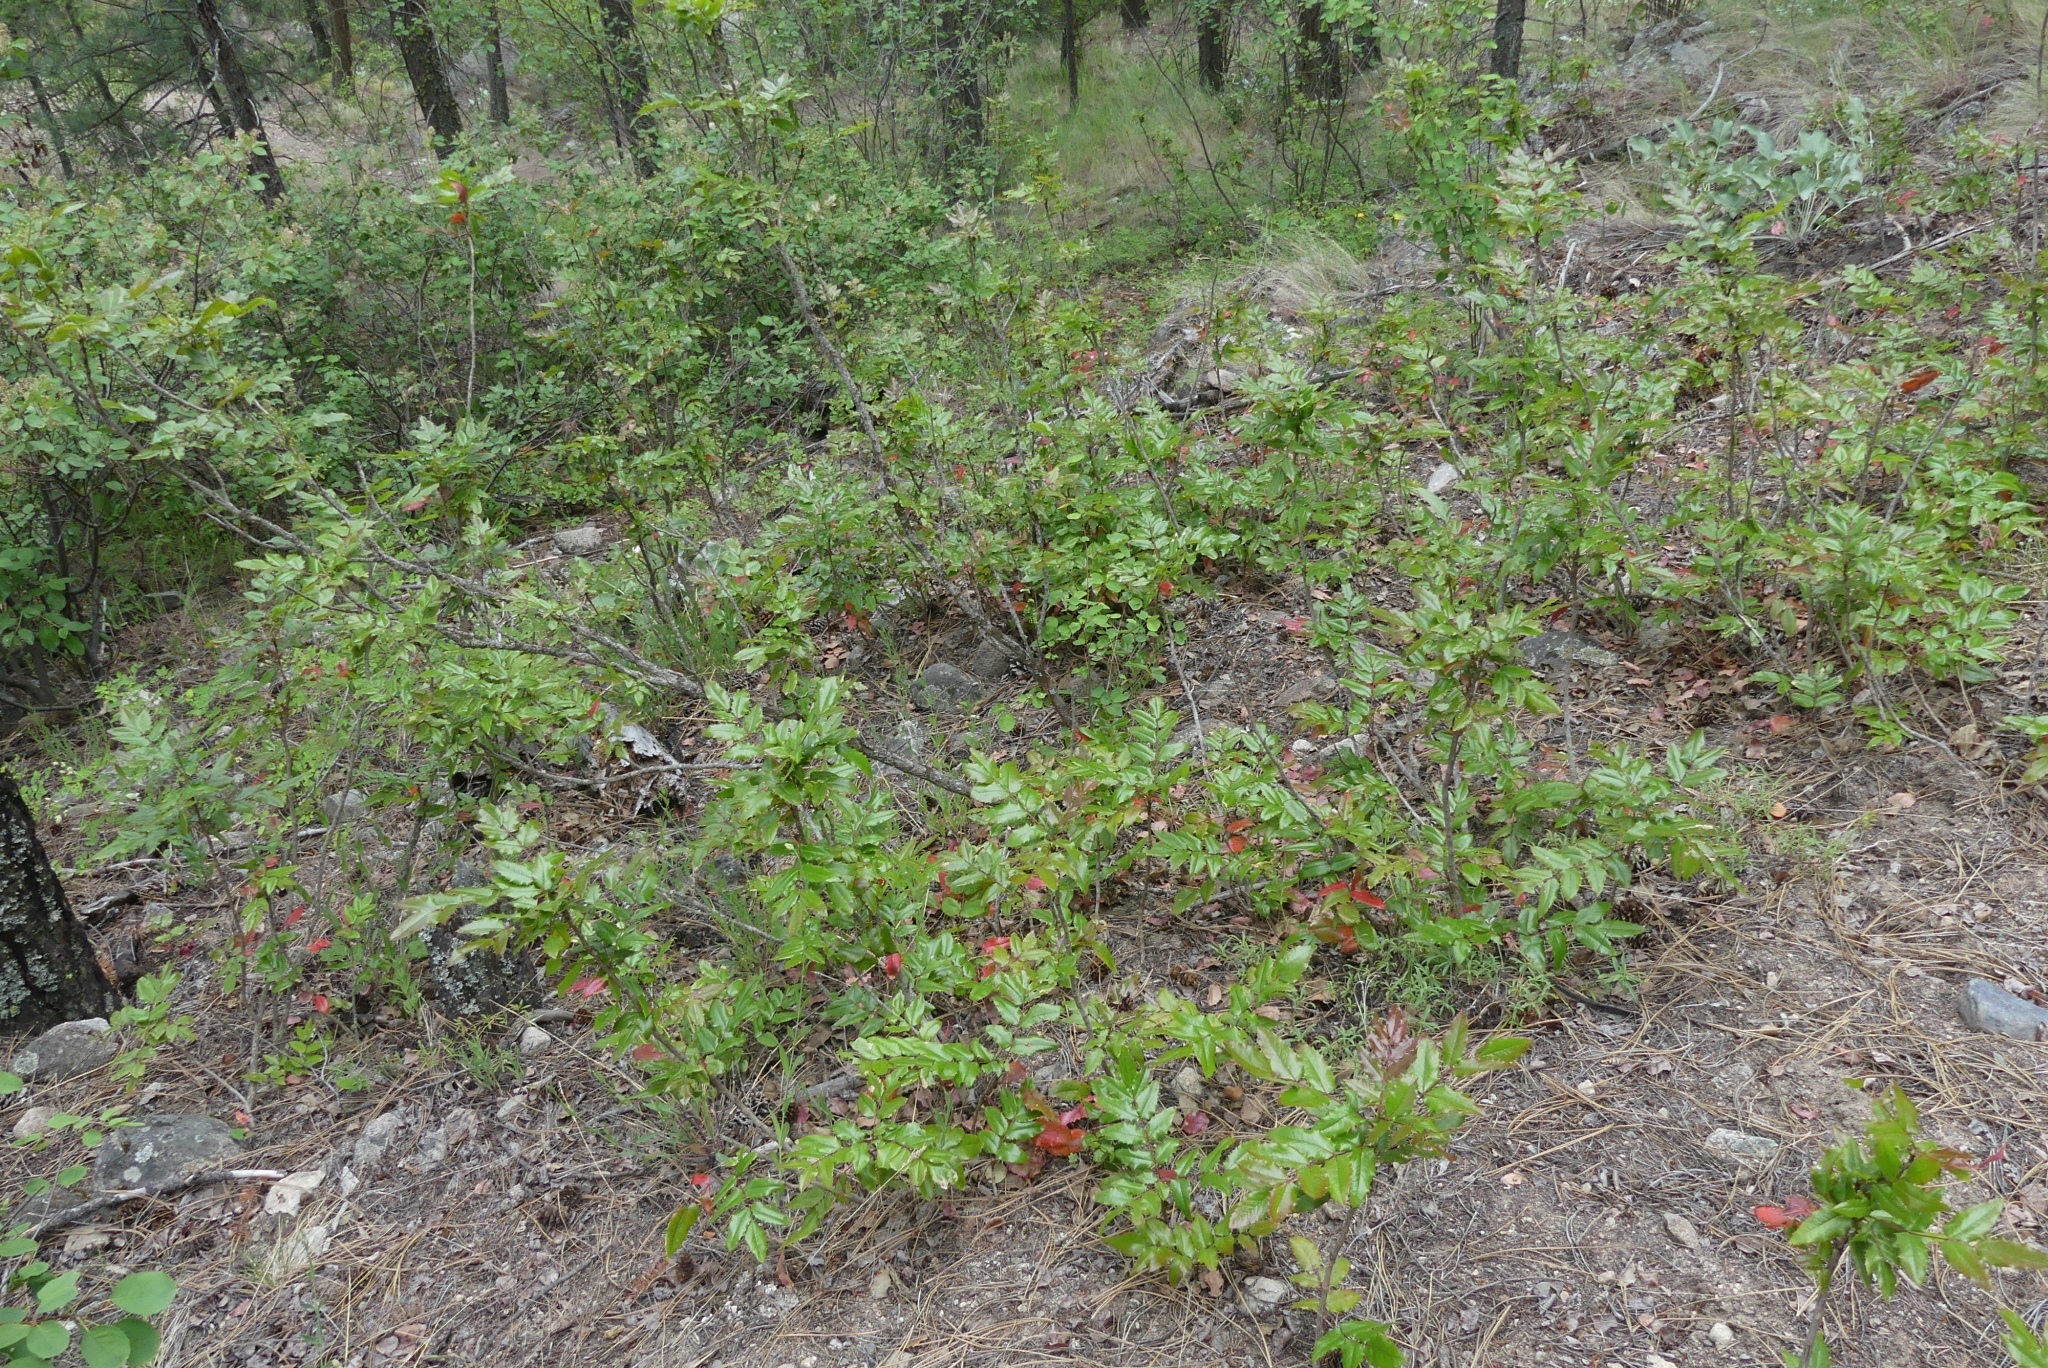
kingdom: Plantae
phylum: Tracheophyta
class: Magnoliopsida
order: Ranunculales
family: Berberidaceae
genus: Mahonia
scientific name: Mahonia aquifolium
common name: Oregon-grape
